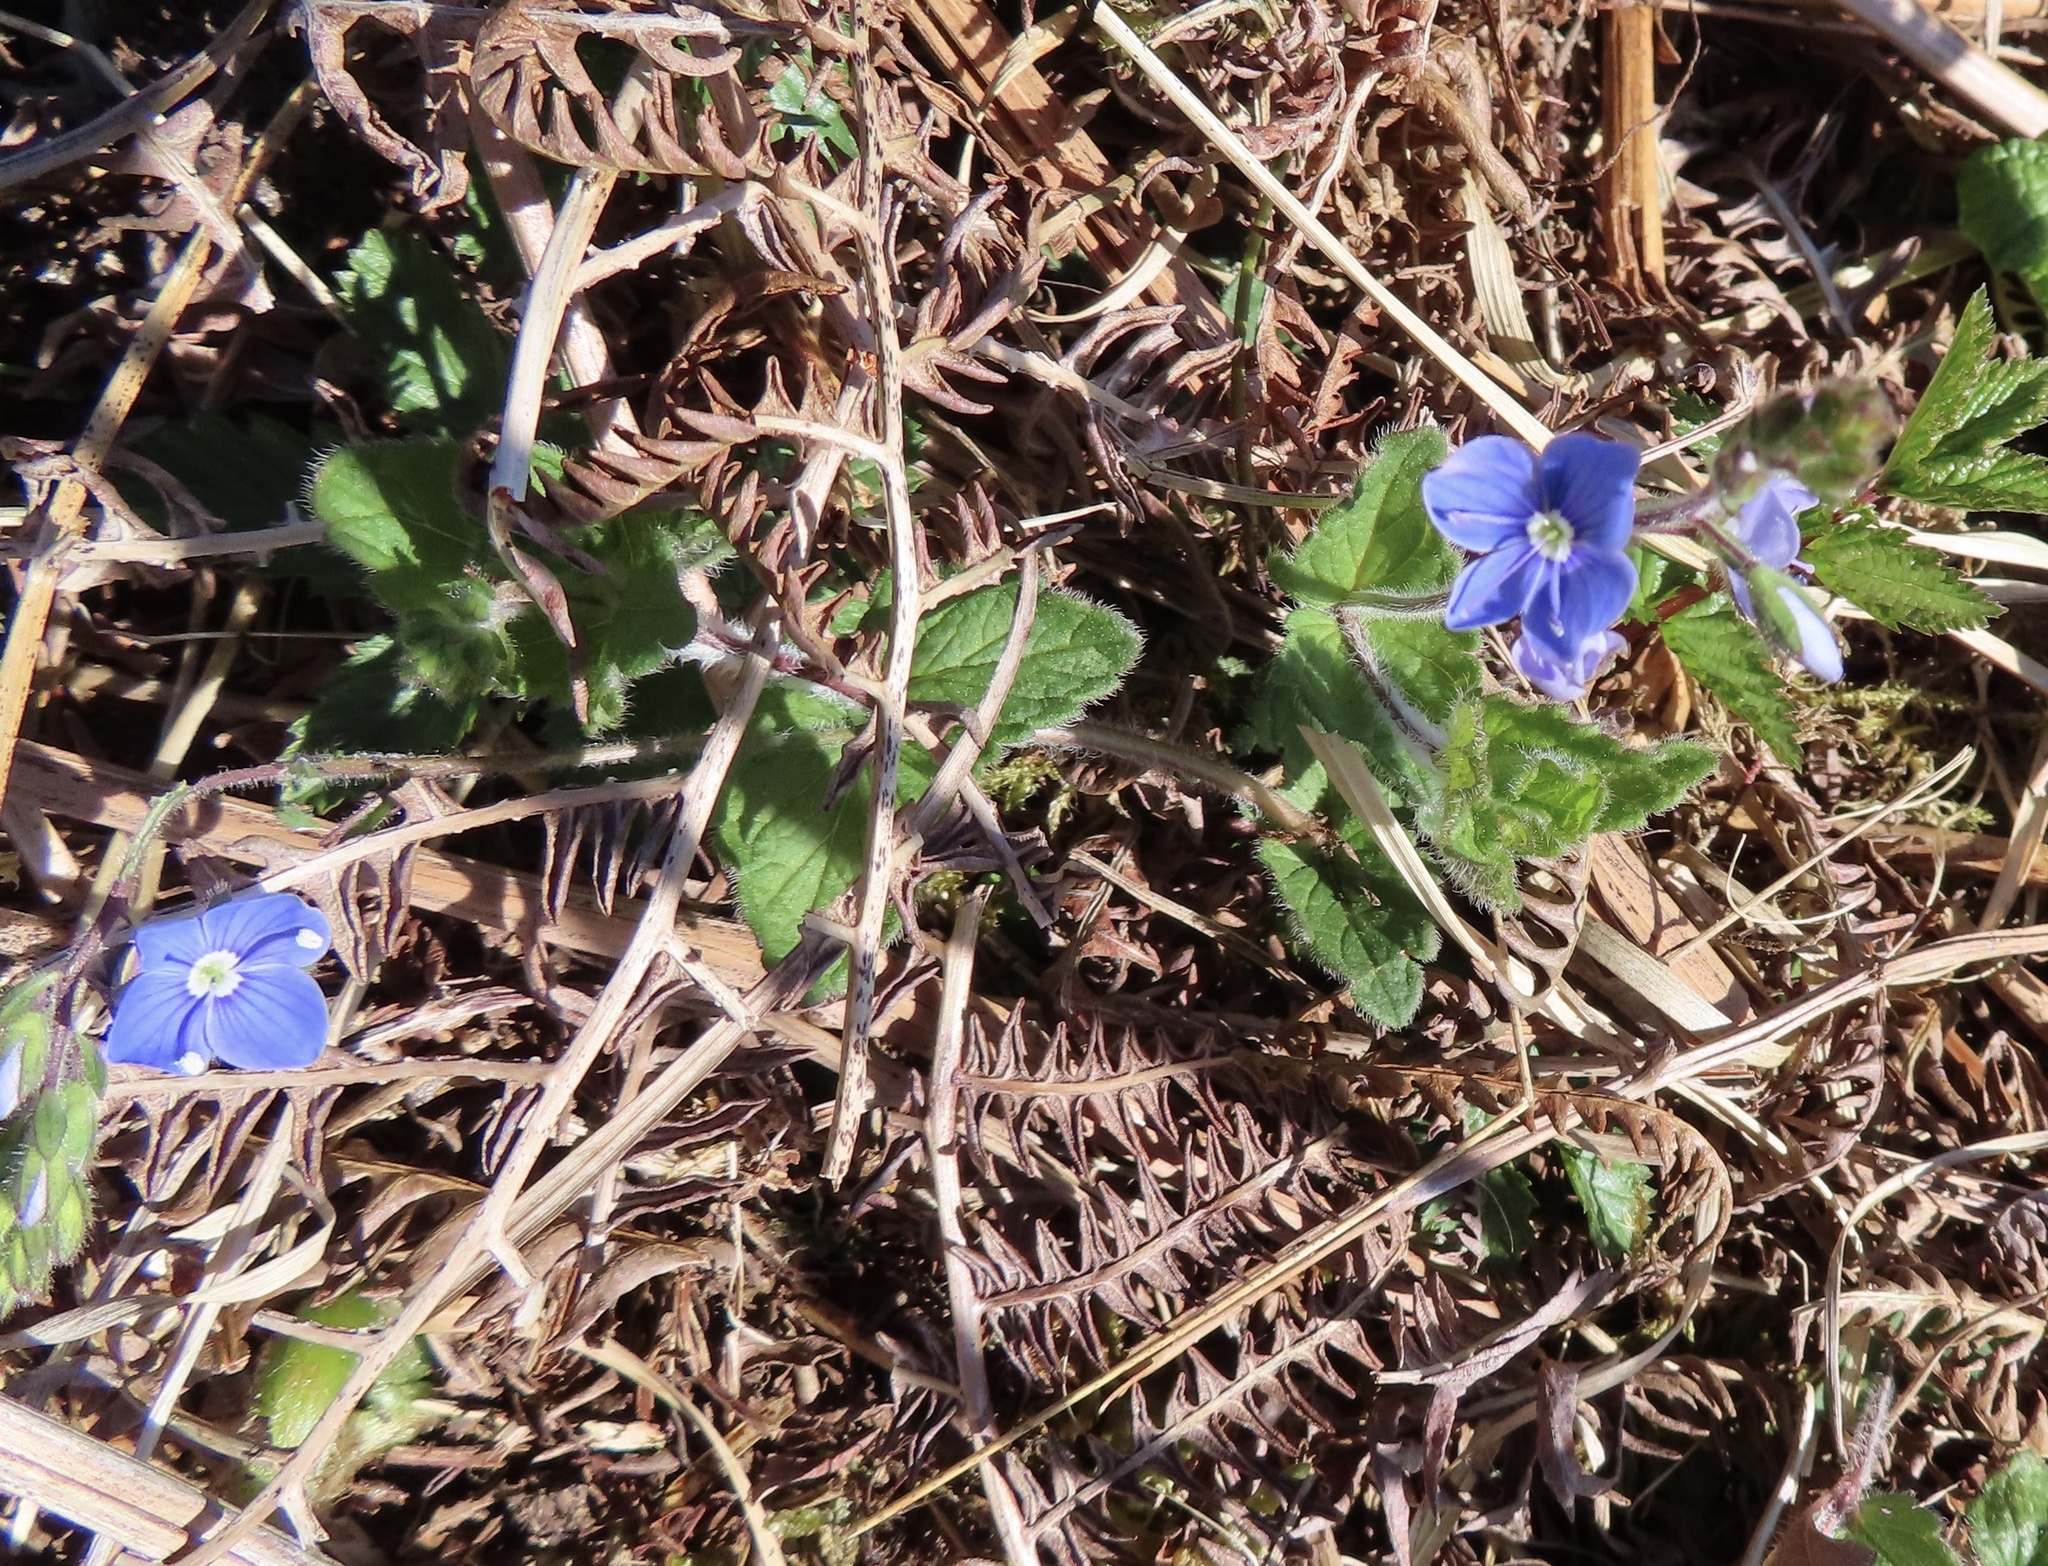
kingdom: Plantae
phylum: Tracheophyta
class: Magnoliopsida
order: Lamiales
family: Plantaginaceae
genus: Veronica
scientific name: Veronica chamaedrys
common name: Germander speedwell
